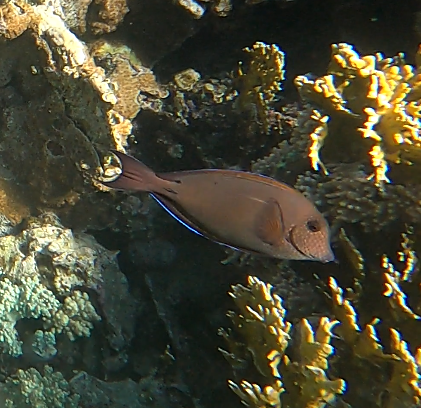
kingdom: Animalia
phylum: Chordata
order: Perciformes
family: Acanthuridae
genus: Acanthurus
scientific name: Acanthurus nigrofuscus
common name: Blackspot surgeonfish
